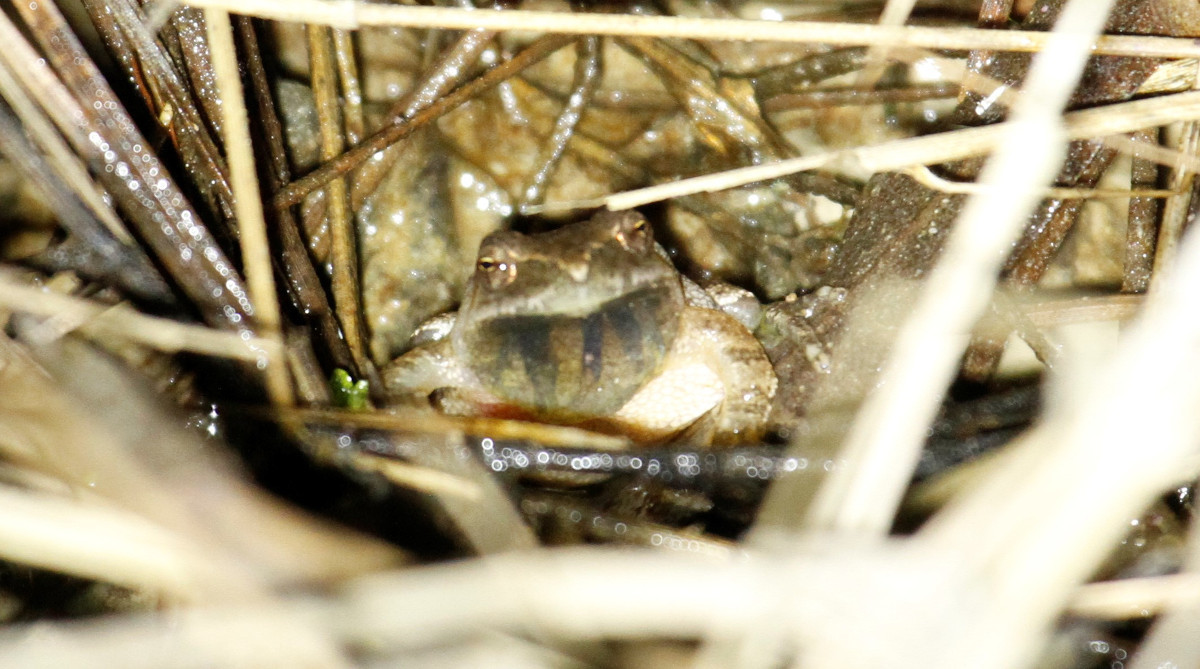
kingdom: Animalia
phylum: Chordata
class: Amphibia
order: Anura
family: Hylidae
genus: Pseudacris
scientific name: Pseudacris crucifer
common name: Spring peeper
